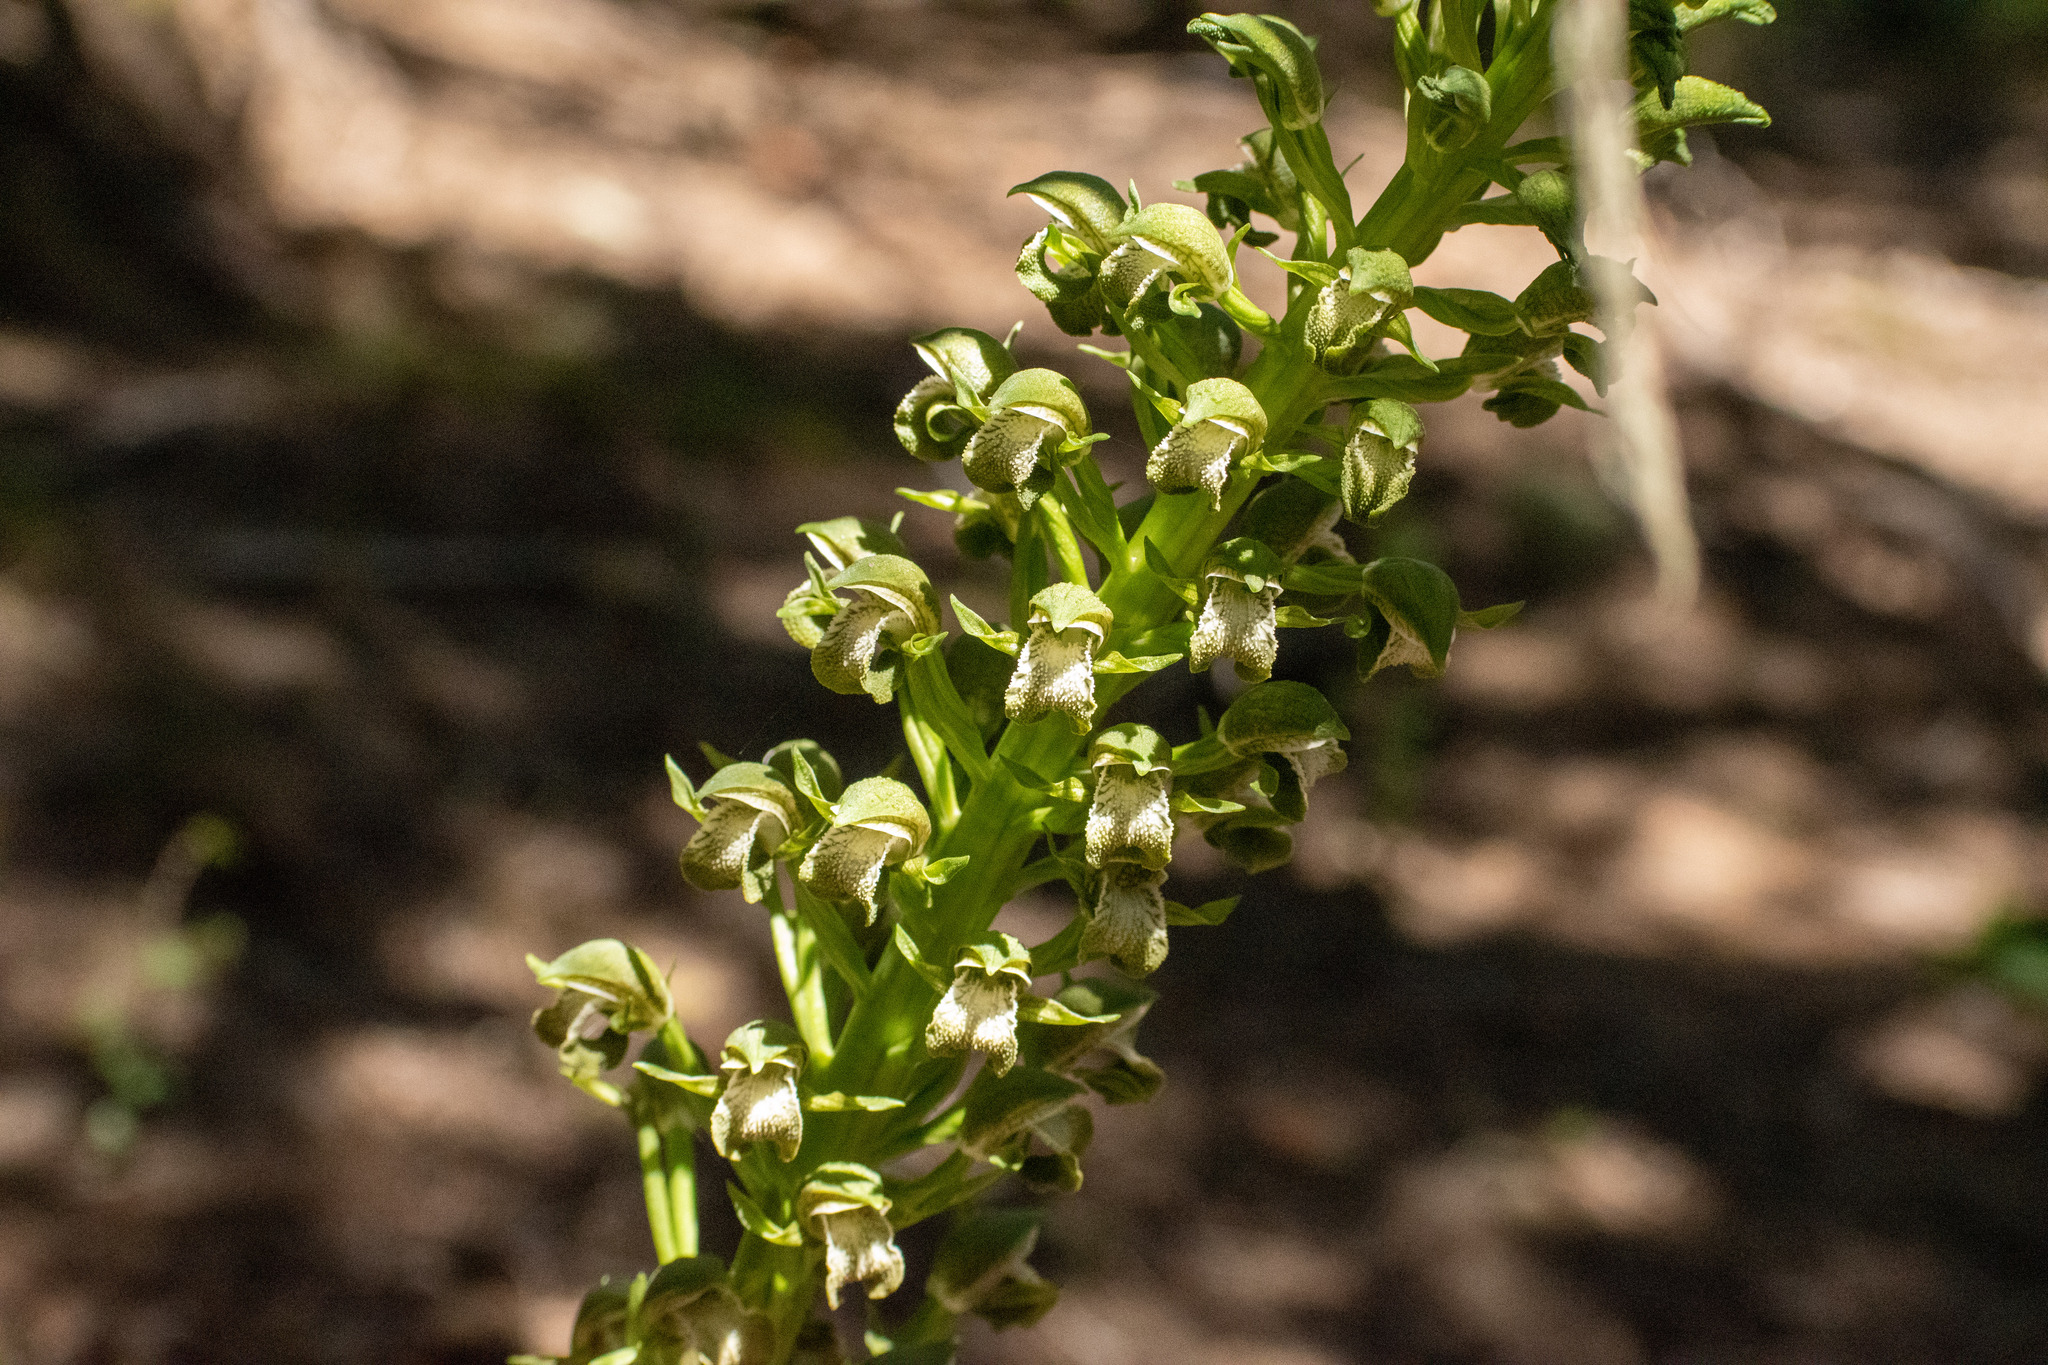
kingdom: Plantae
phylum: Tracheophyta
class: Liliopsida
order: Asparagales
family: Orchidaceae
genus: Chloraea
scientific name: Chloraea cylindrostachya
